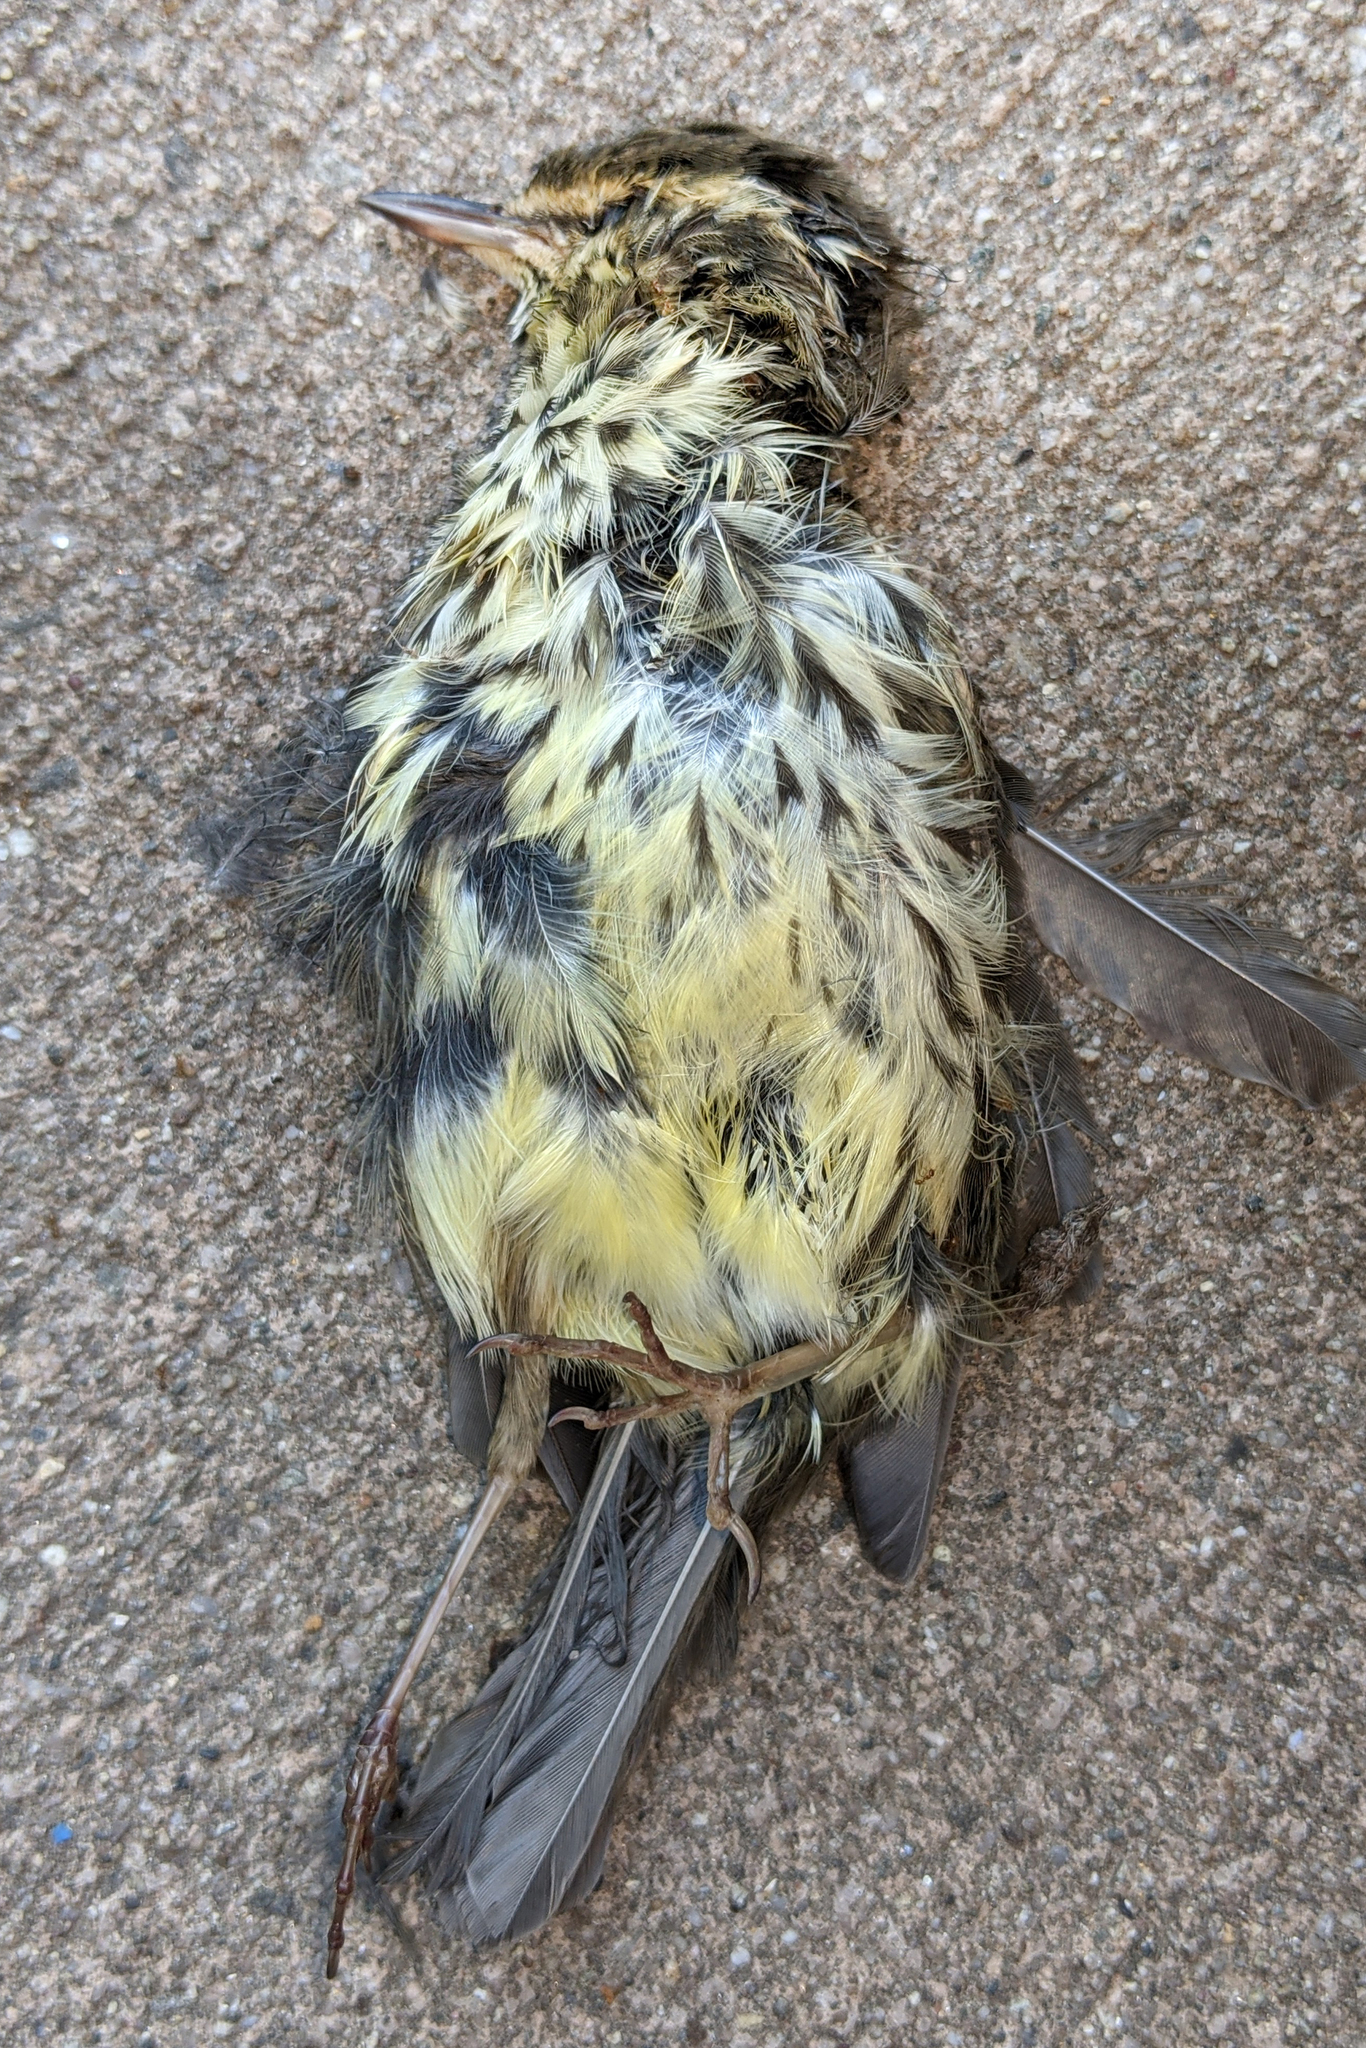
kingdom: Animalia
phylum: Chordata
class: Aves
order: Passeriformes
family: Parulidae
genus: Parkesia
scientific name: Parkesia noveboracensis
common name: Northern waterthrush
